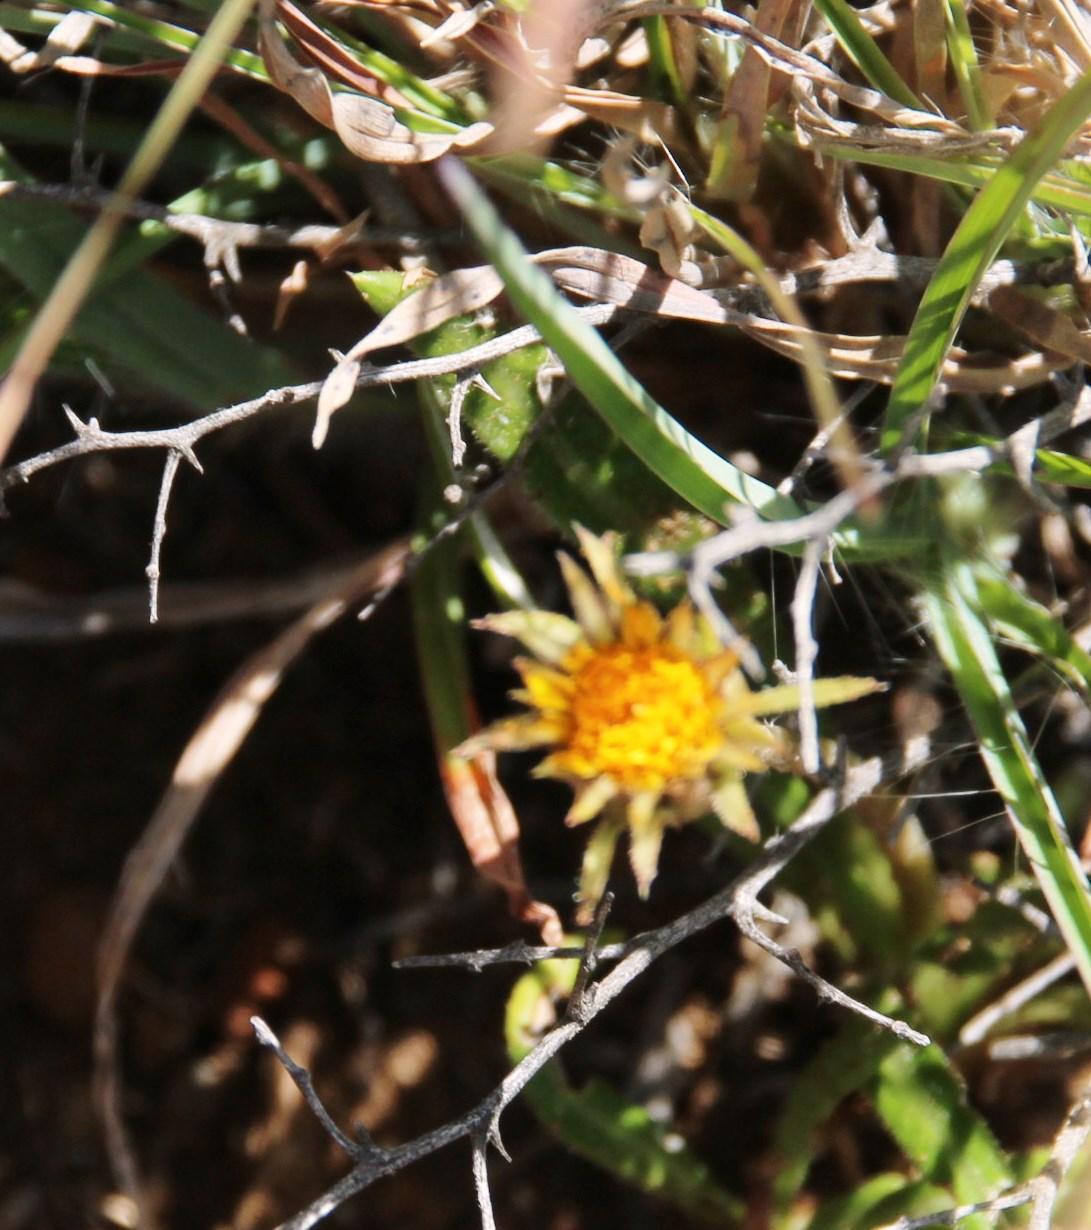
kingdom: Plantae
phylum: Tracheophyta
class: Magnoliopsida
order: Asterales
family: Asteraceae
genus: Gazania
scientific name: Gazania krebsiana
